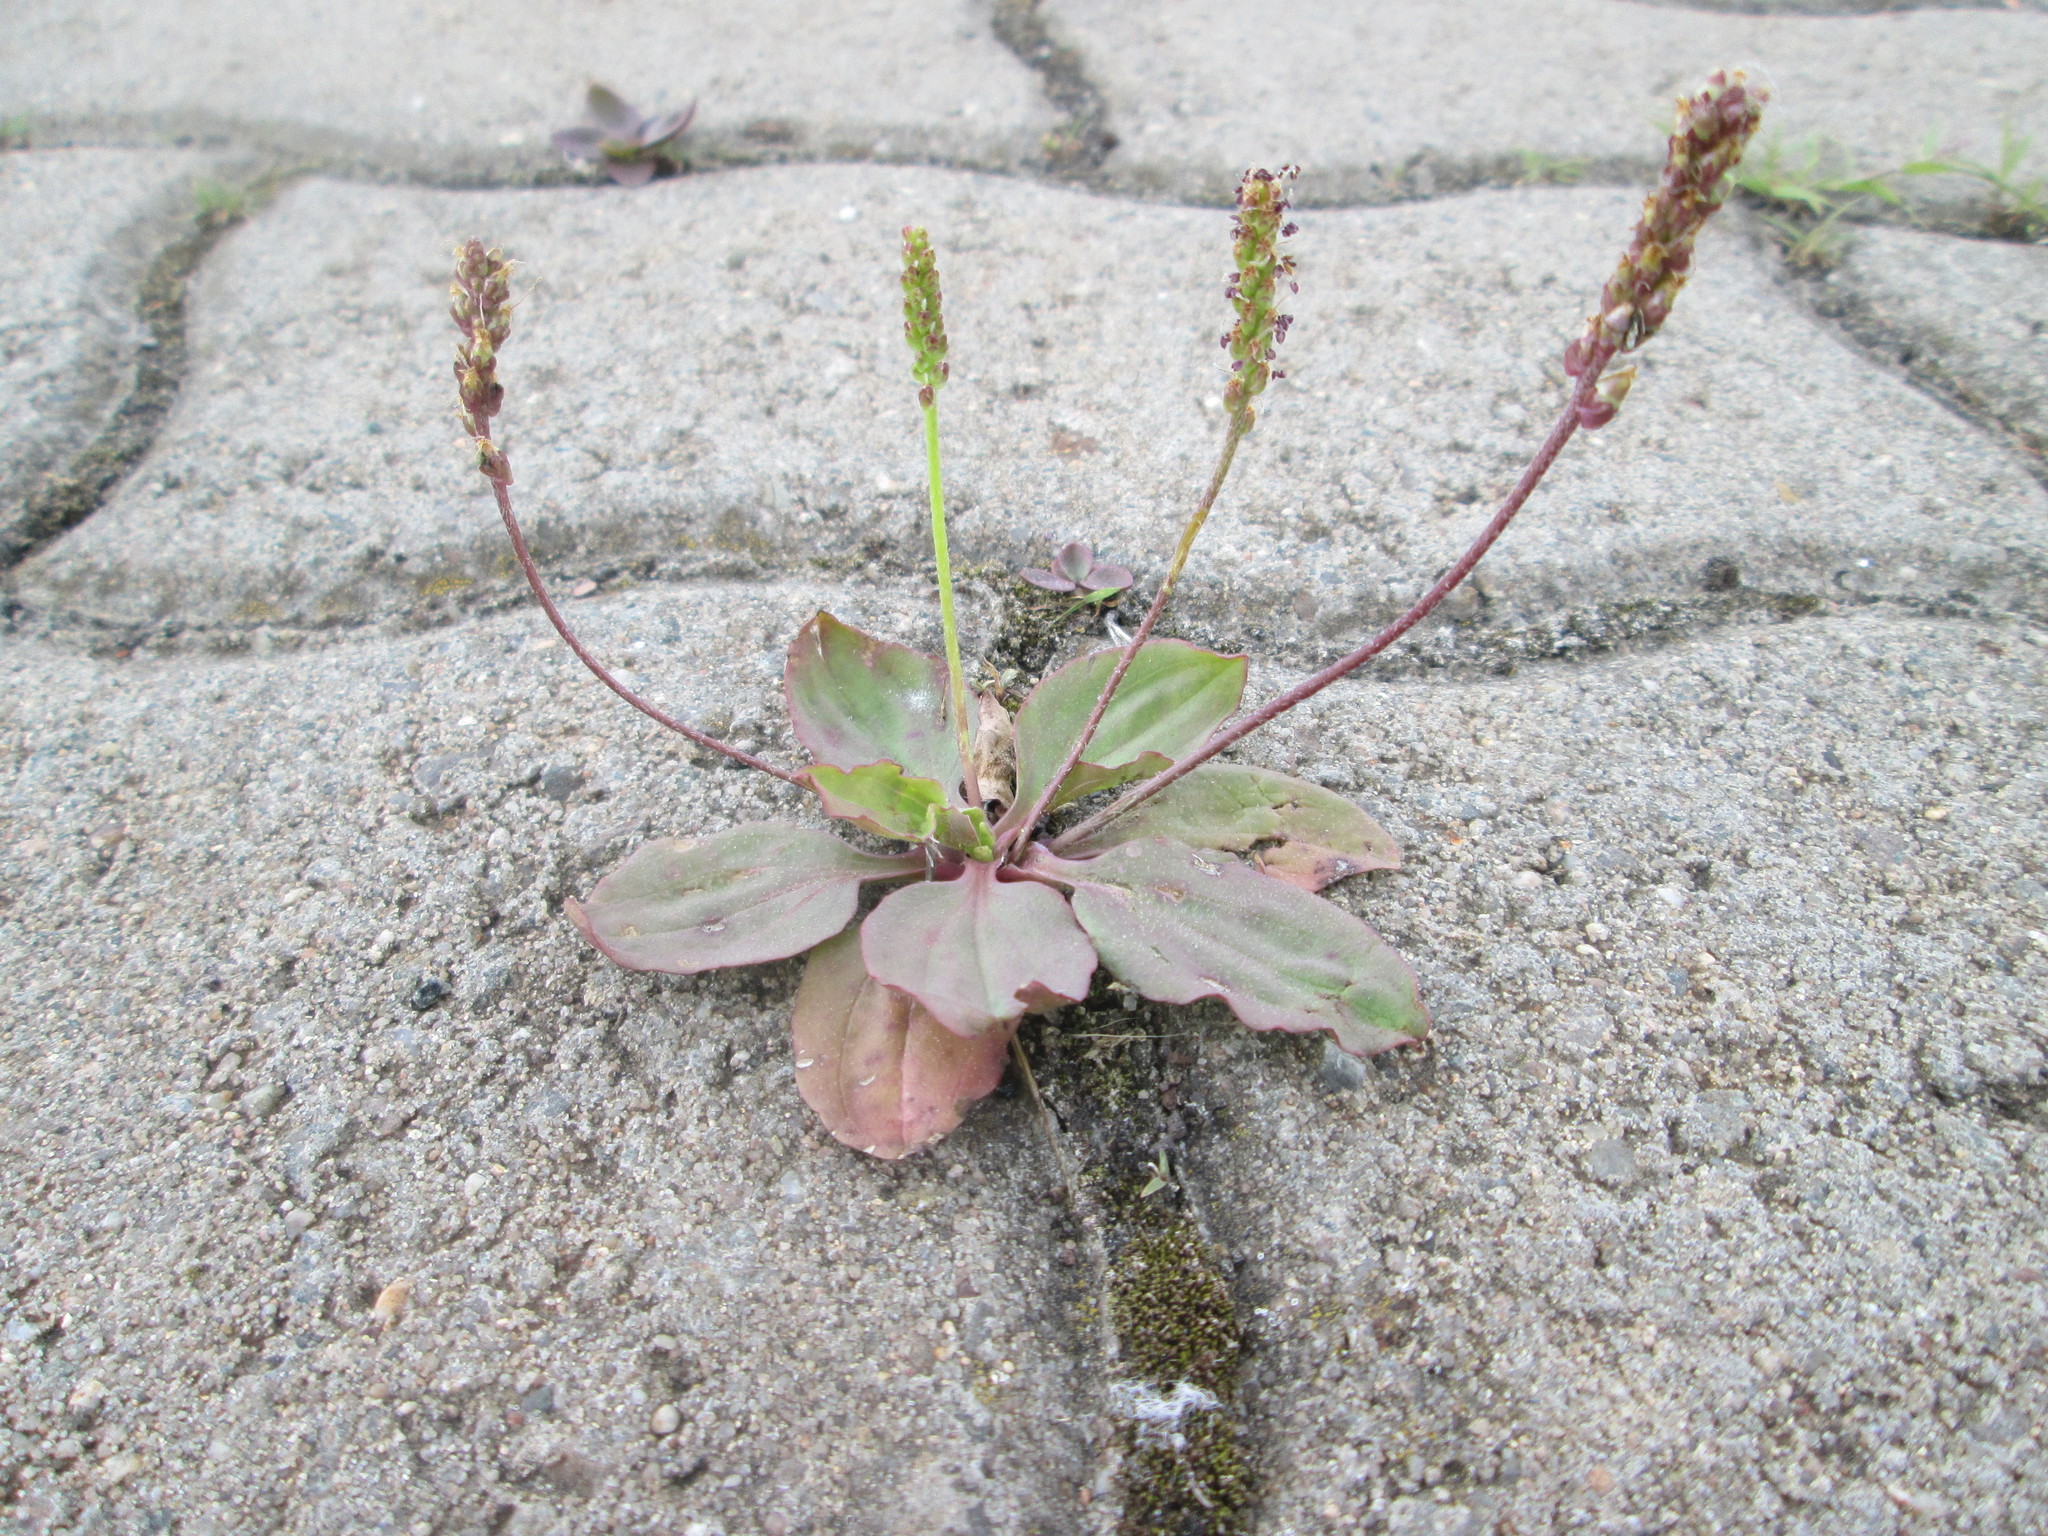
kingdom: Plantae
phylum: Tracheophyta
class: Magnoliopsida
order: Lamiales
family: Plantaginaceae
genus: Plantago
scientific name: Plantago major
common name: Common plantain
